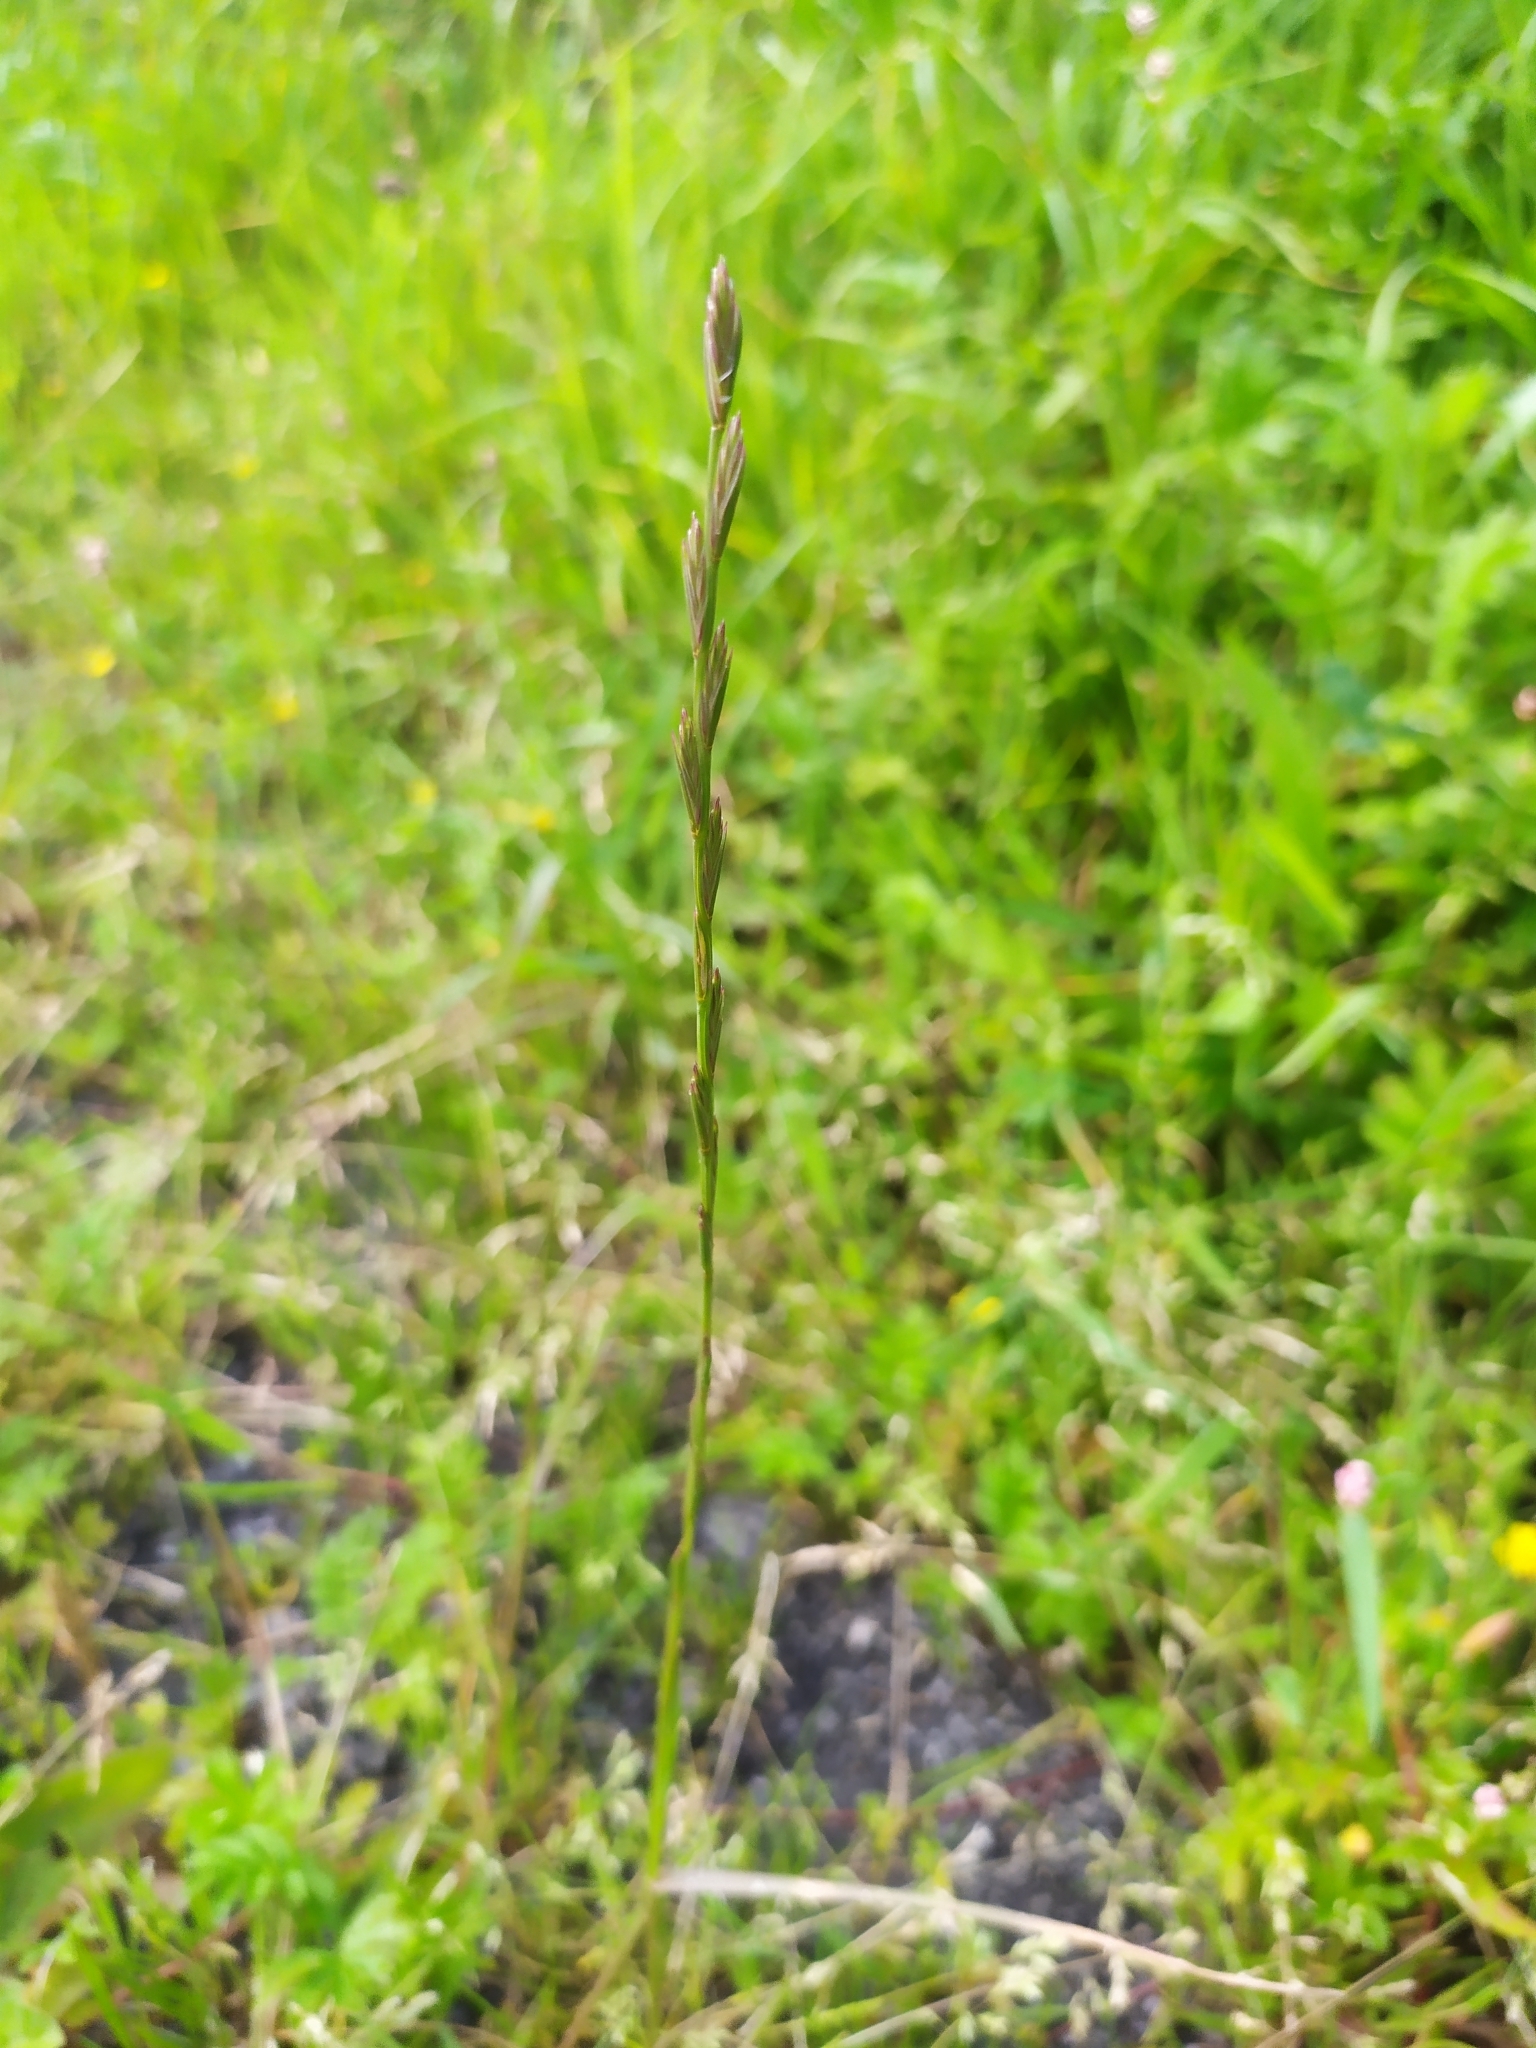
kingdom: Plantae
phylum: Tracheophyta
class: Liliopsida
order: Poales
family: Poaceae
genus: Lolium
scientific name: Lolium perenne
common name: Perennial ryegrass
